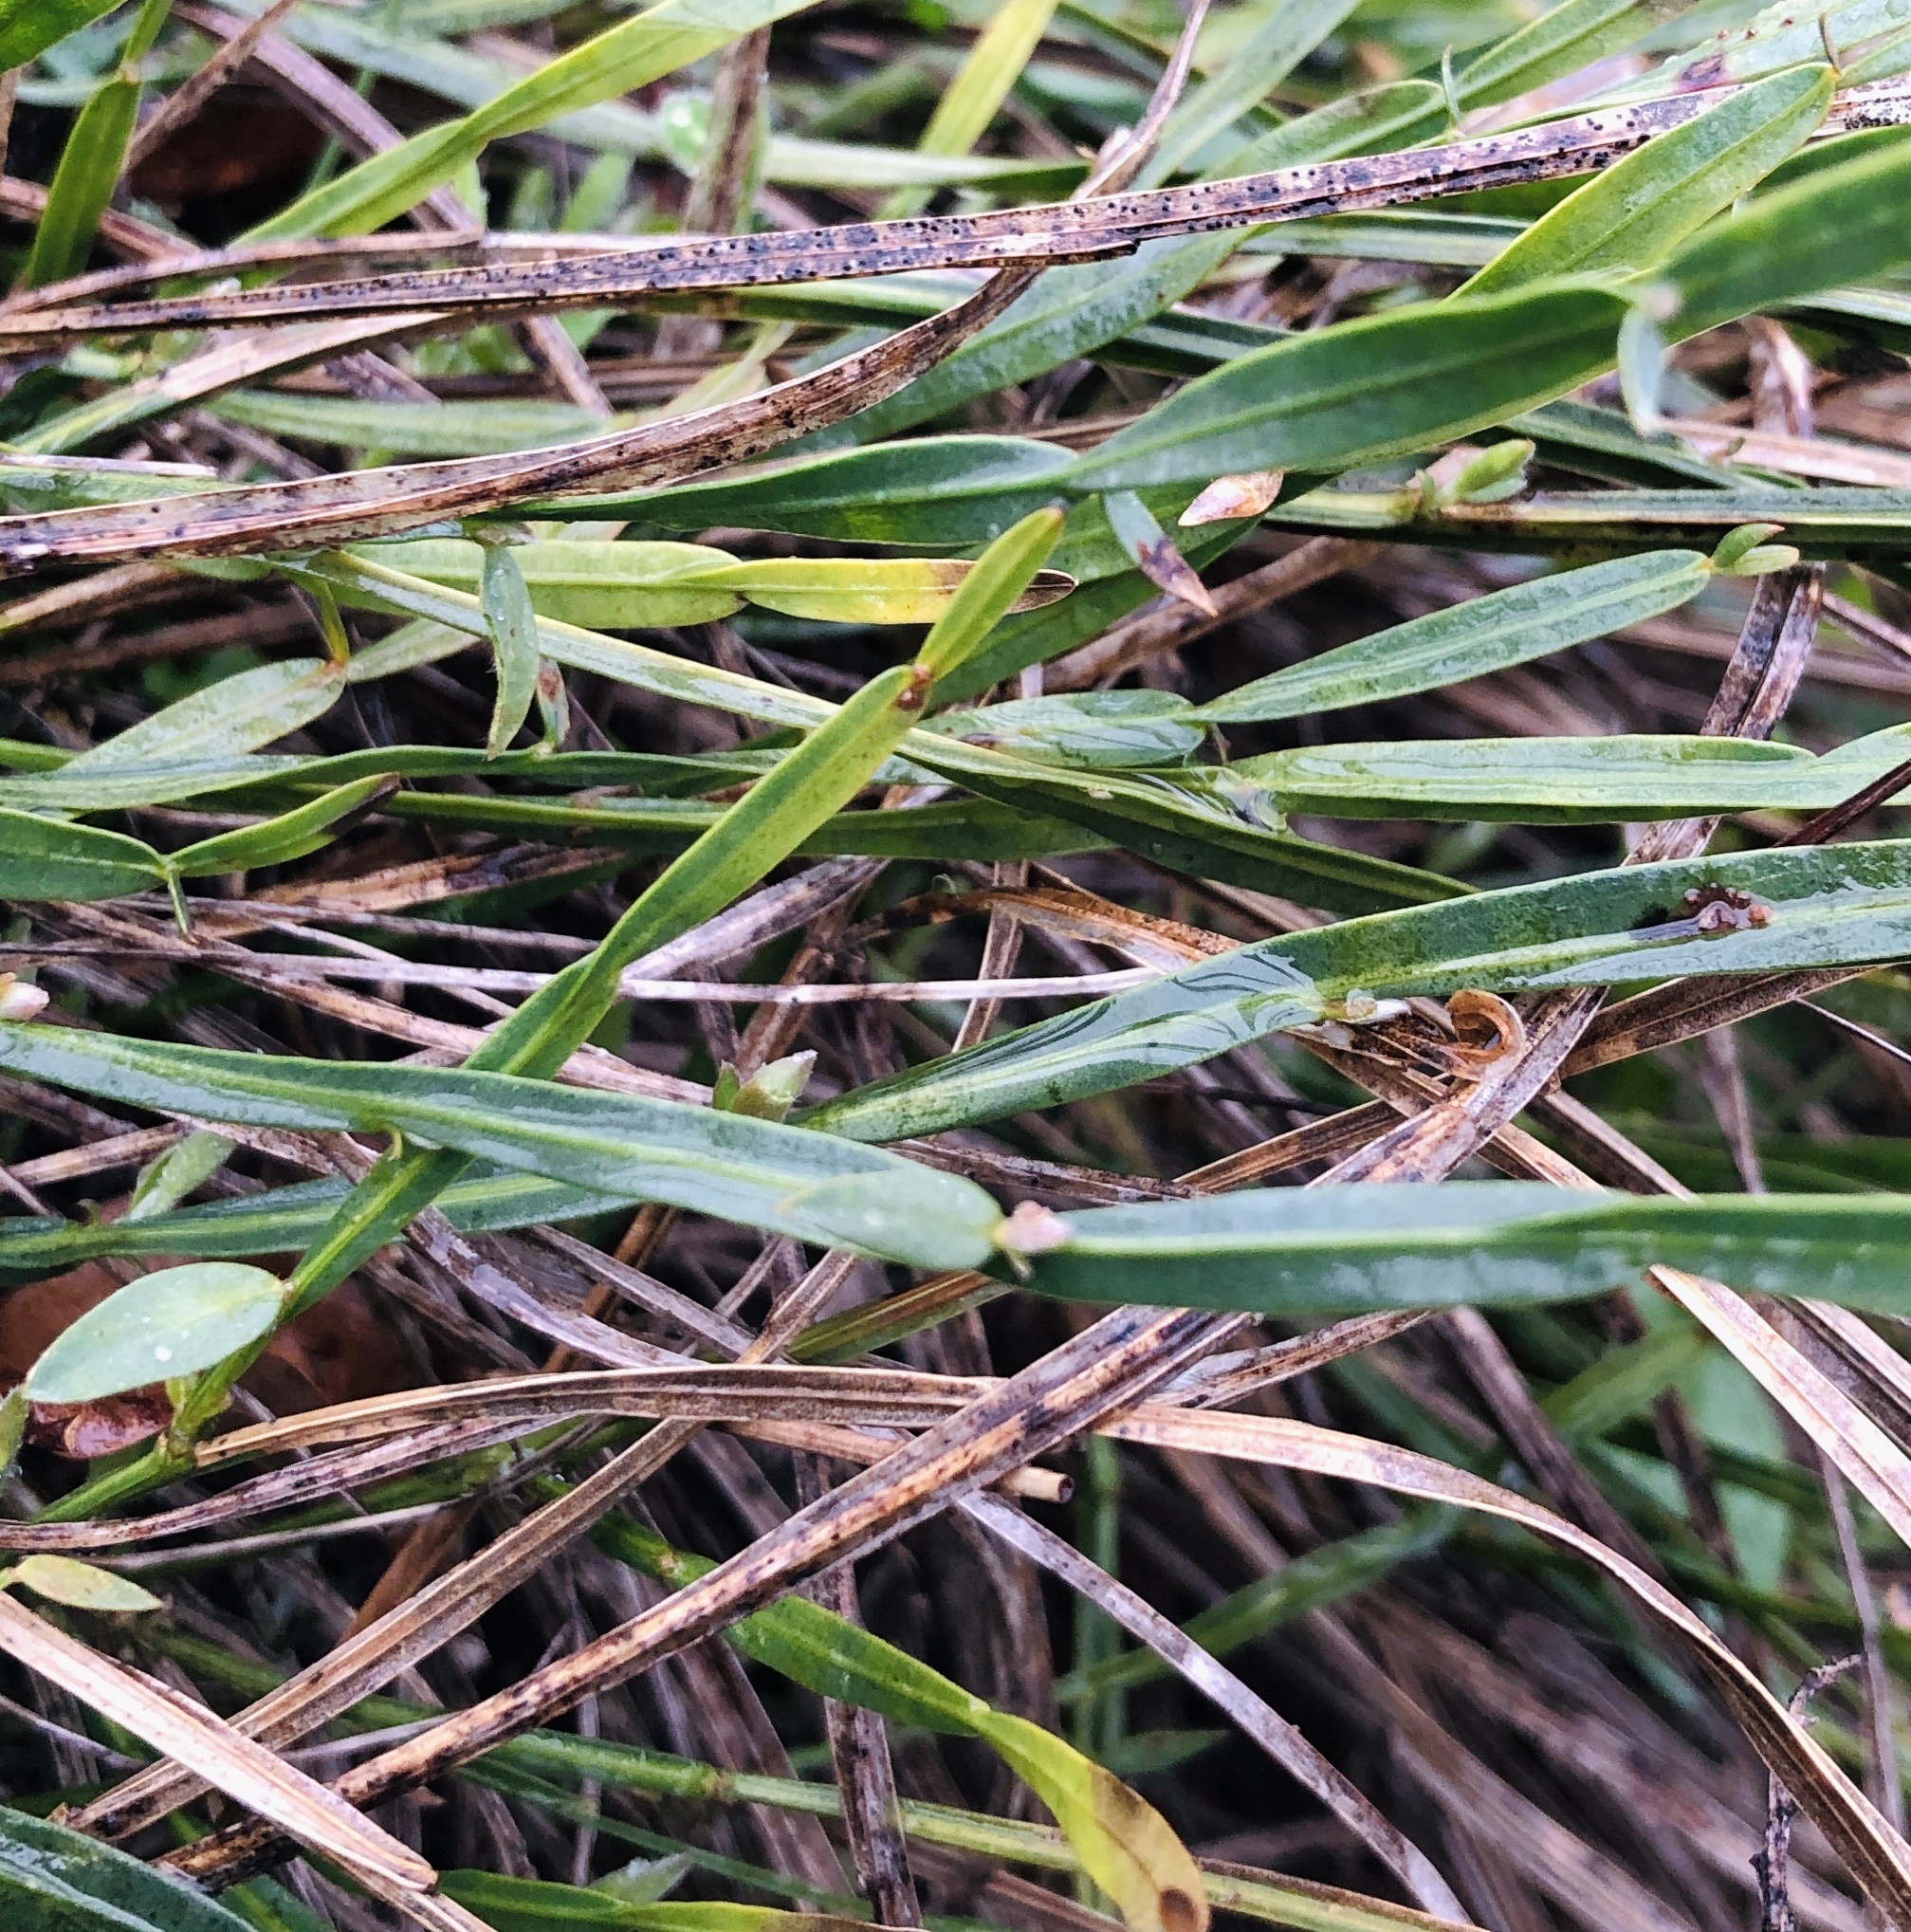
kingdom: Plantae
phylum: Tracheophyta
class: Magnoliopsida
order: Fabales
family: Fabaceae
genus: Genista
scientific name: Genista sagittalis
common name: Winged greenweed
